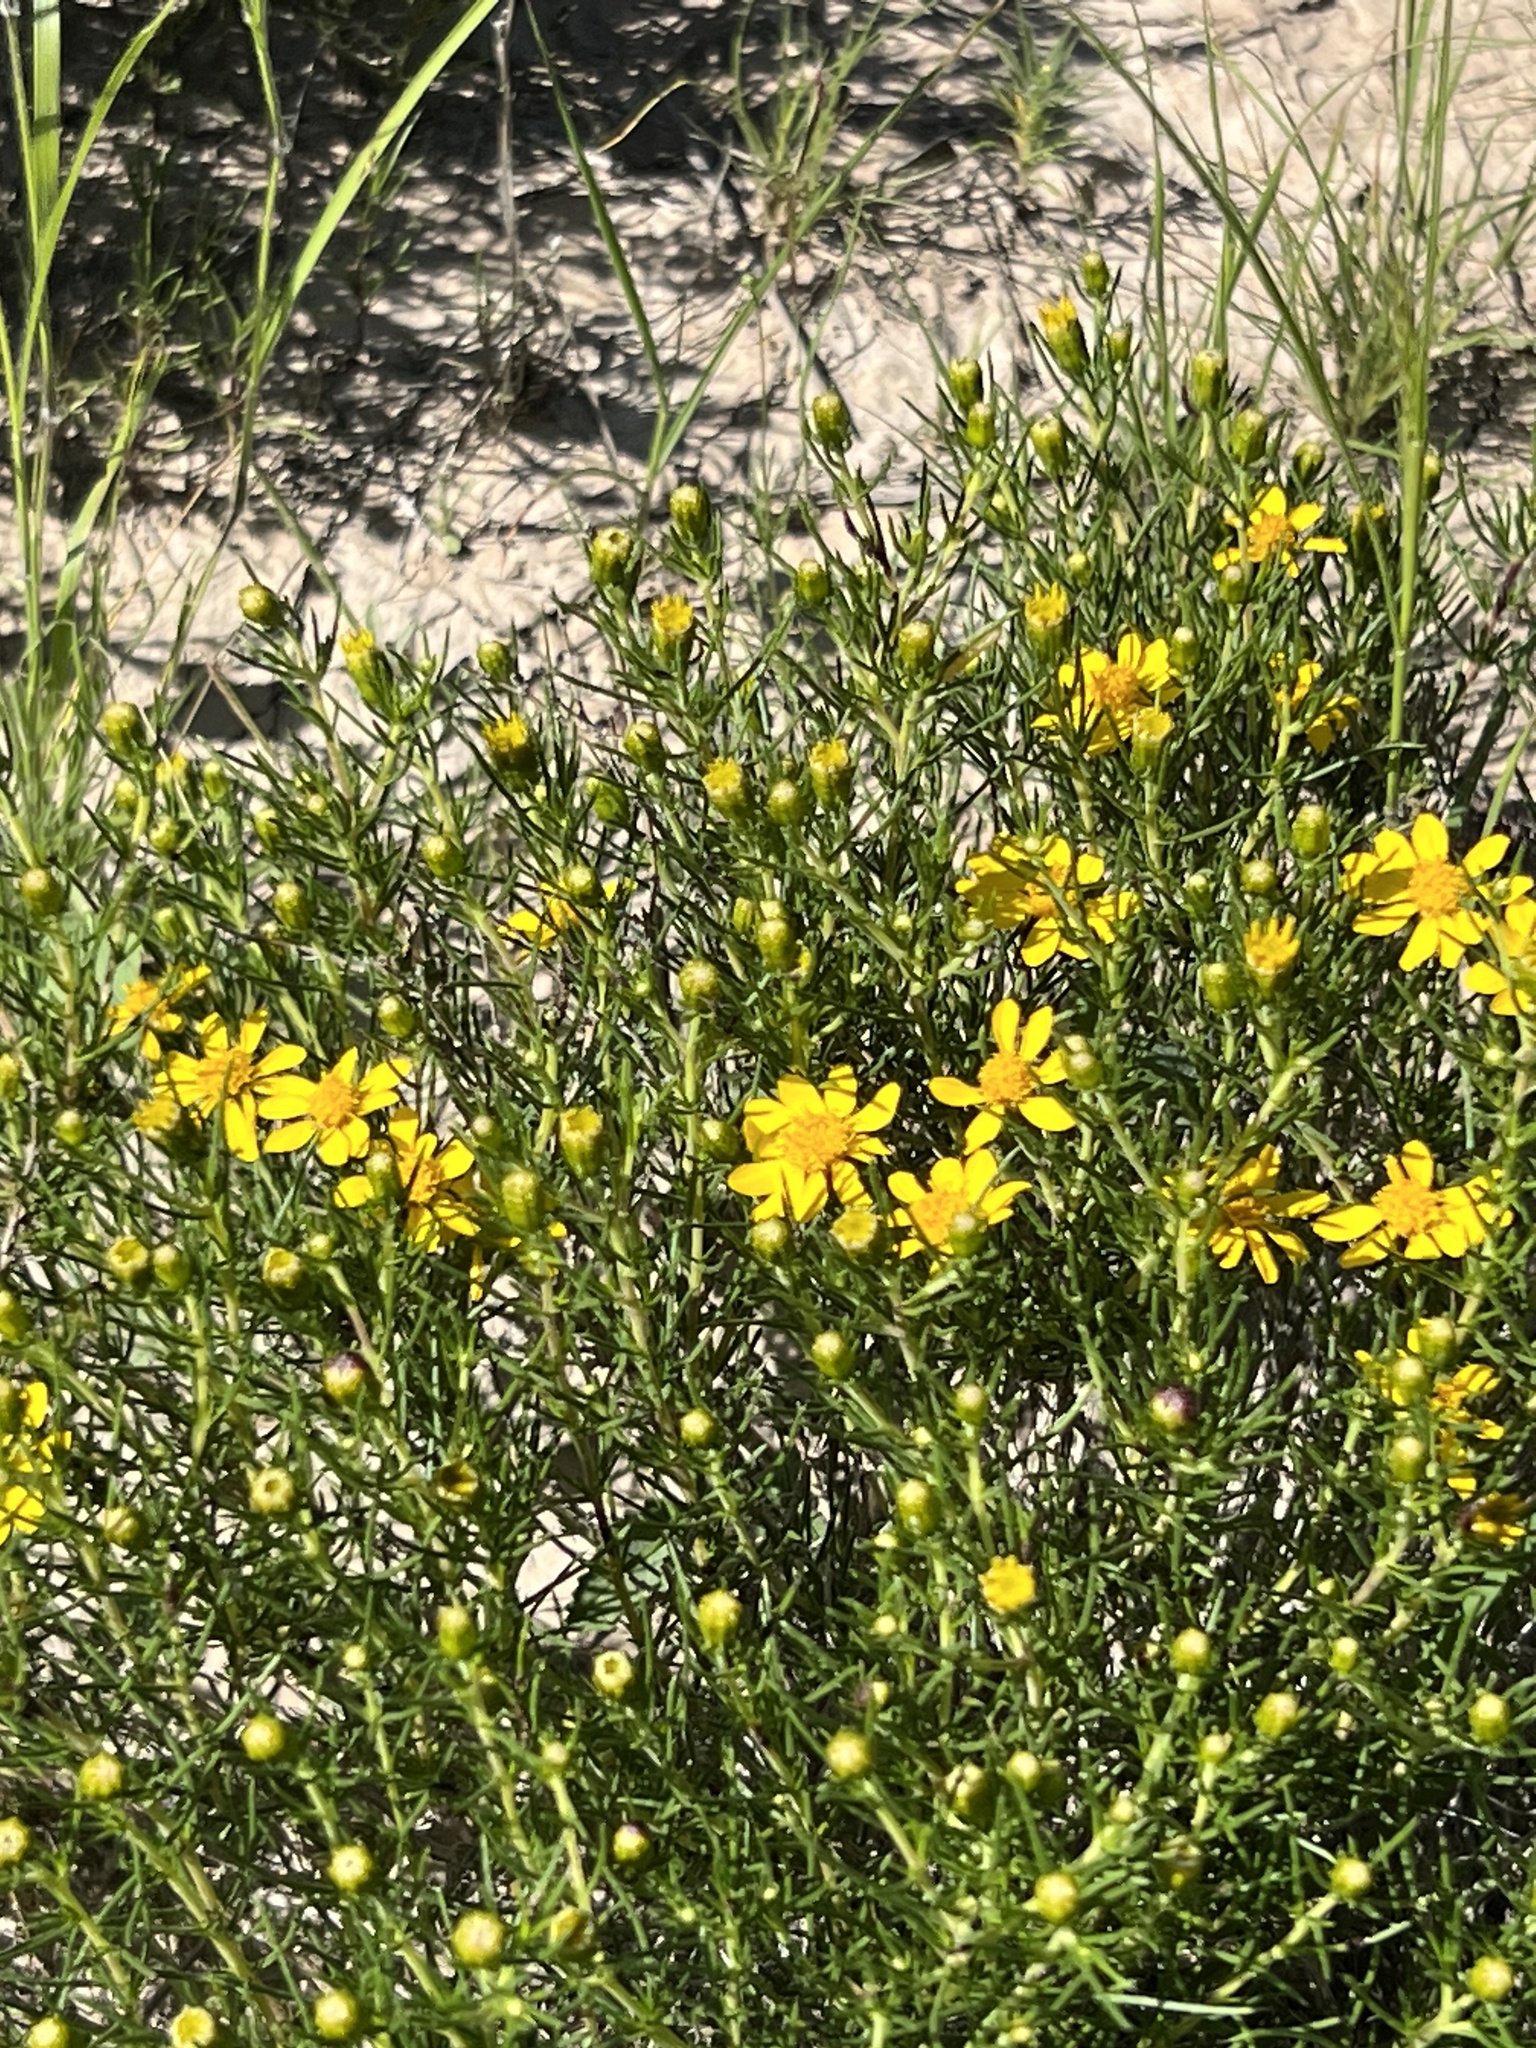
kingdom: Plantae
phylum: Tracheophyta
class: Magnoliopsida
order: Asterales
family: Asteraceae
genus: Thymophylla
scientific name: Thymophylla acerosa
